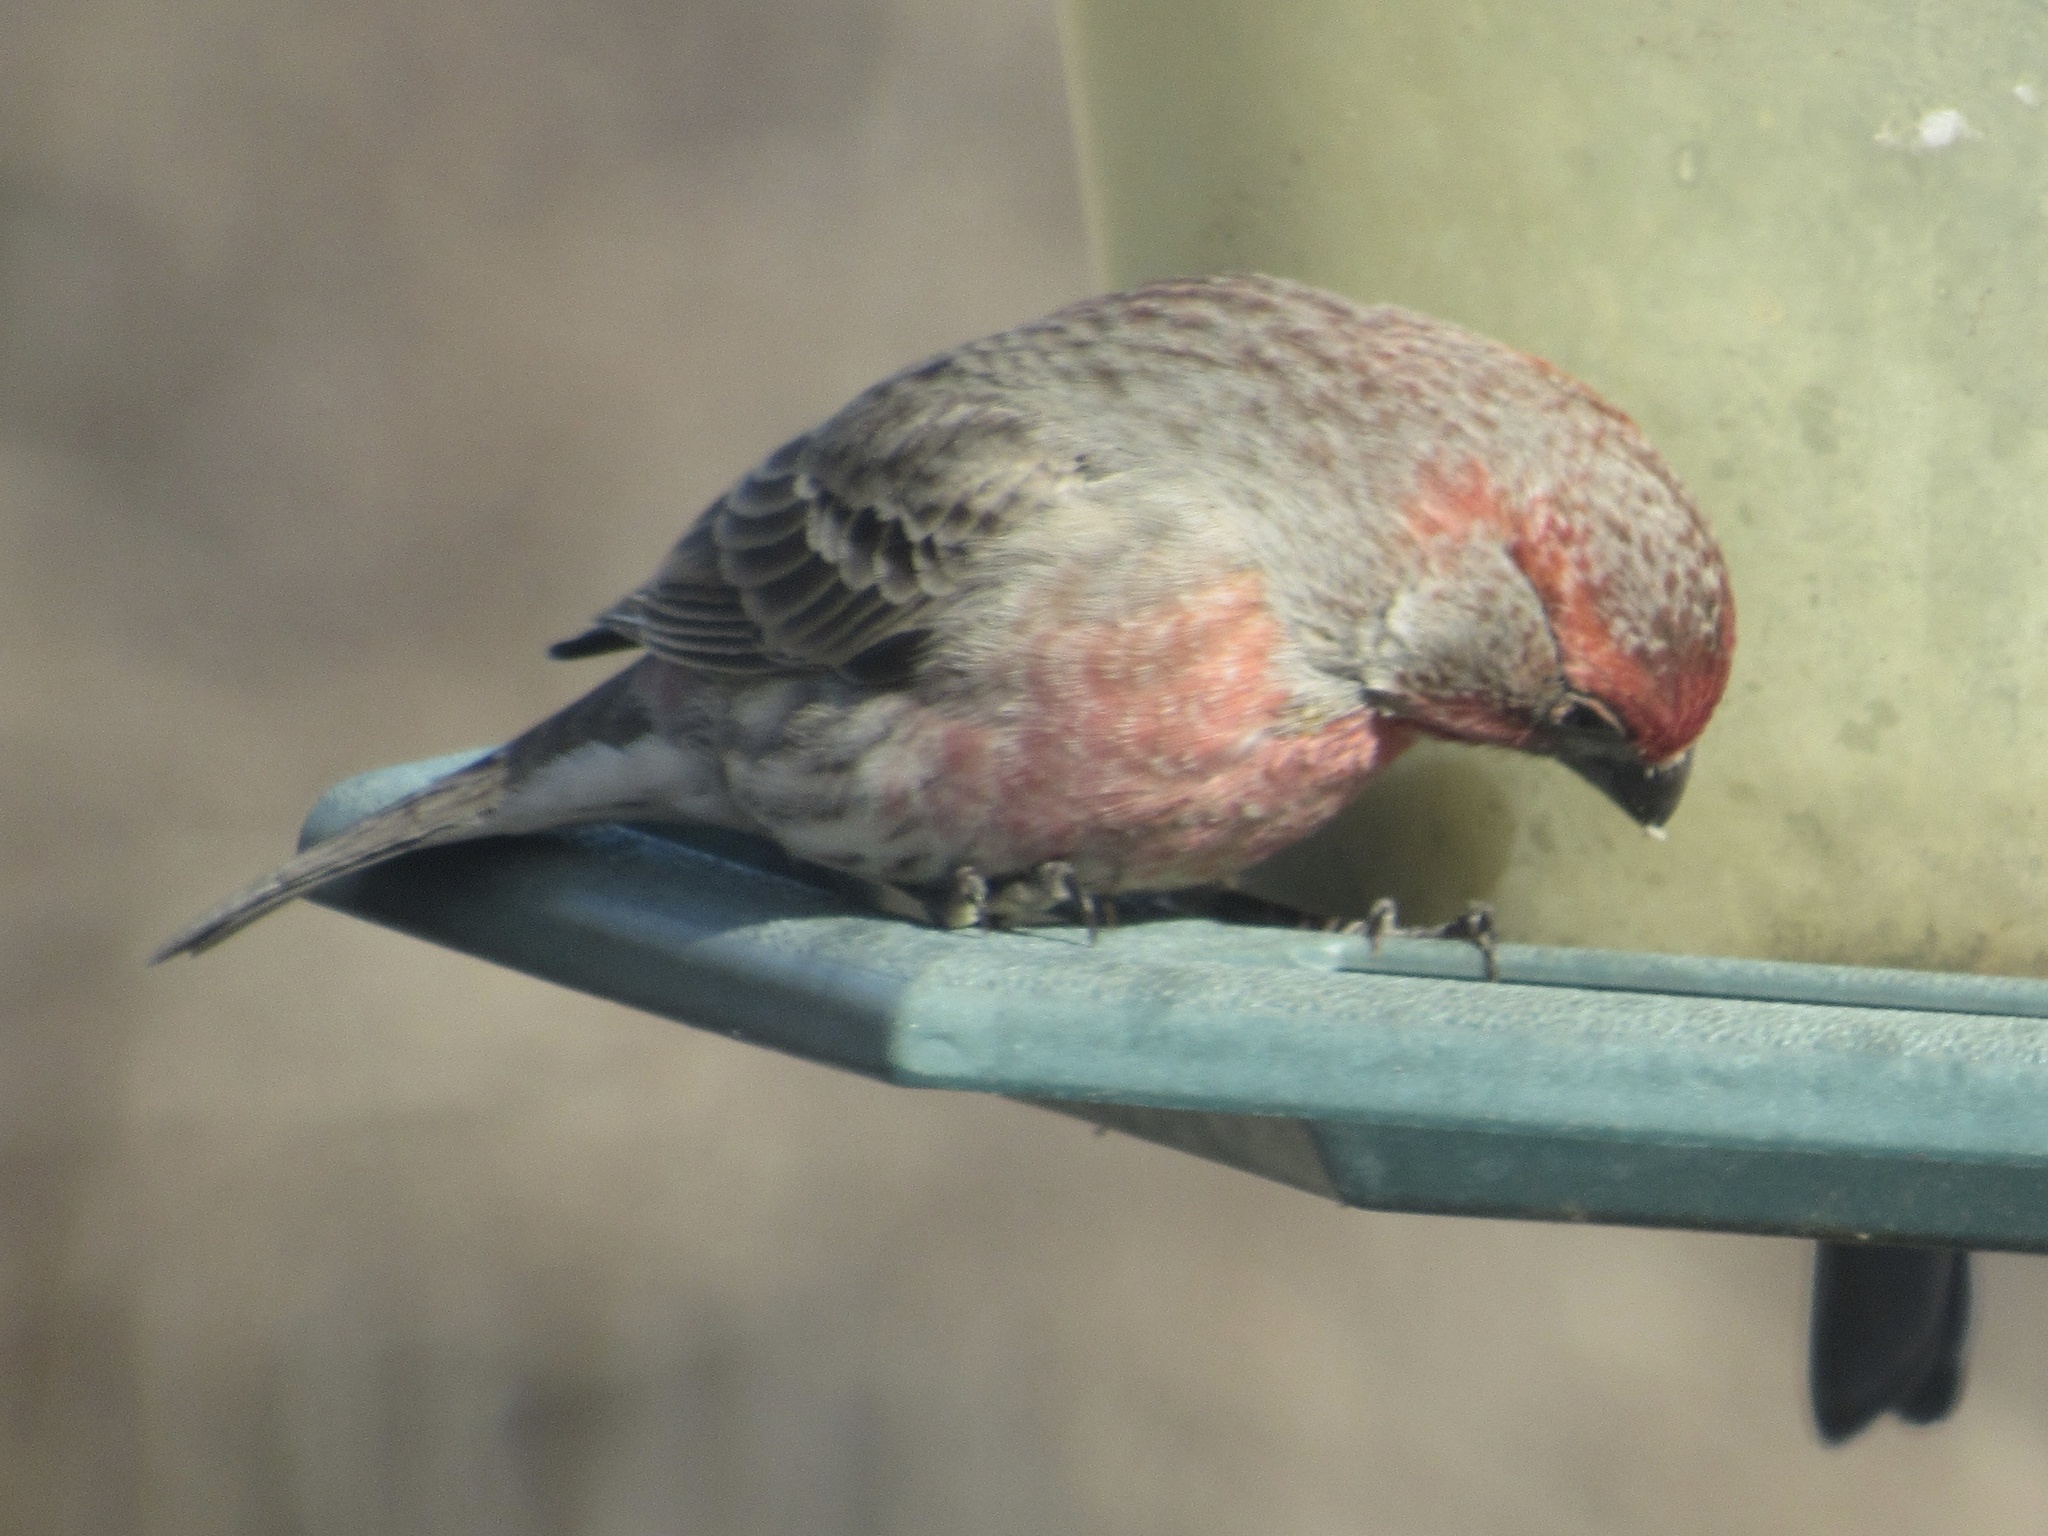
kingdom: Animalia
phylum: Chordata
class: Aves
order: Passeriformes
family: Fringillidae
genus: Haemorhous
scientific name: Haemorhous mexicanus
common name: House finch
